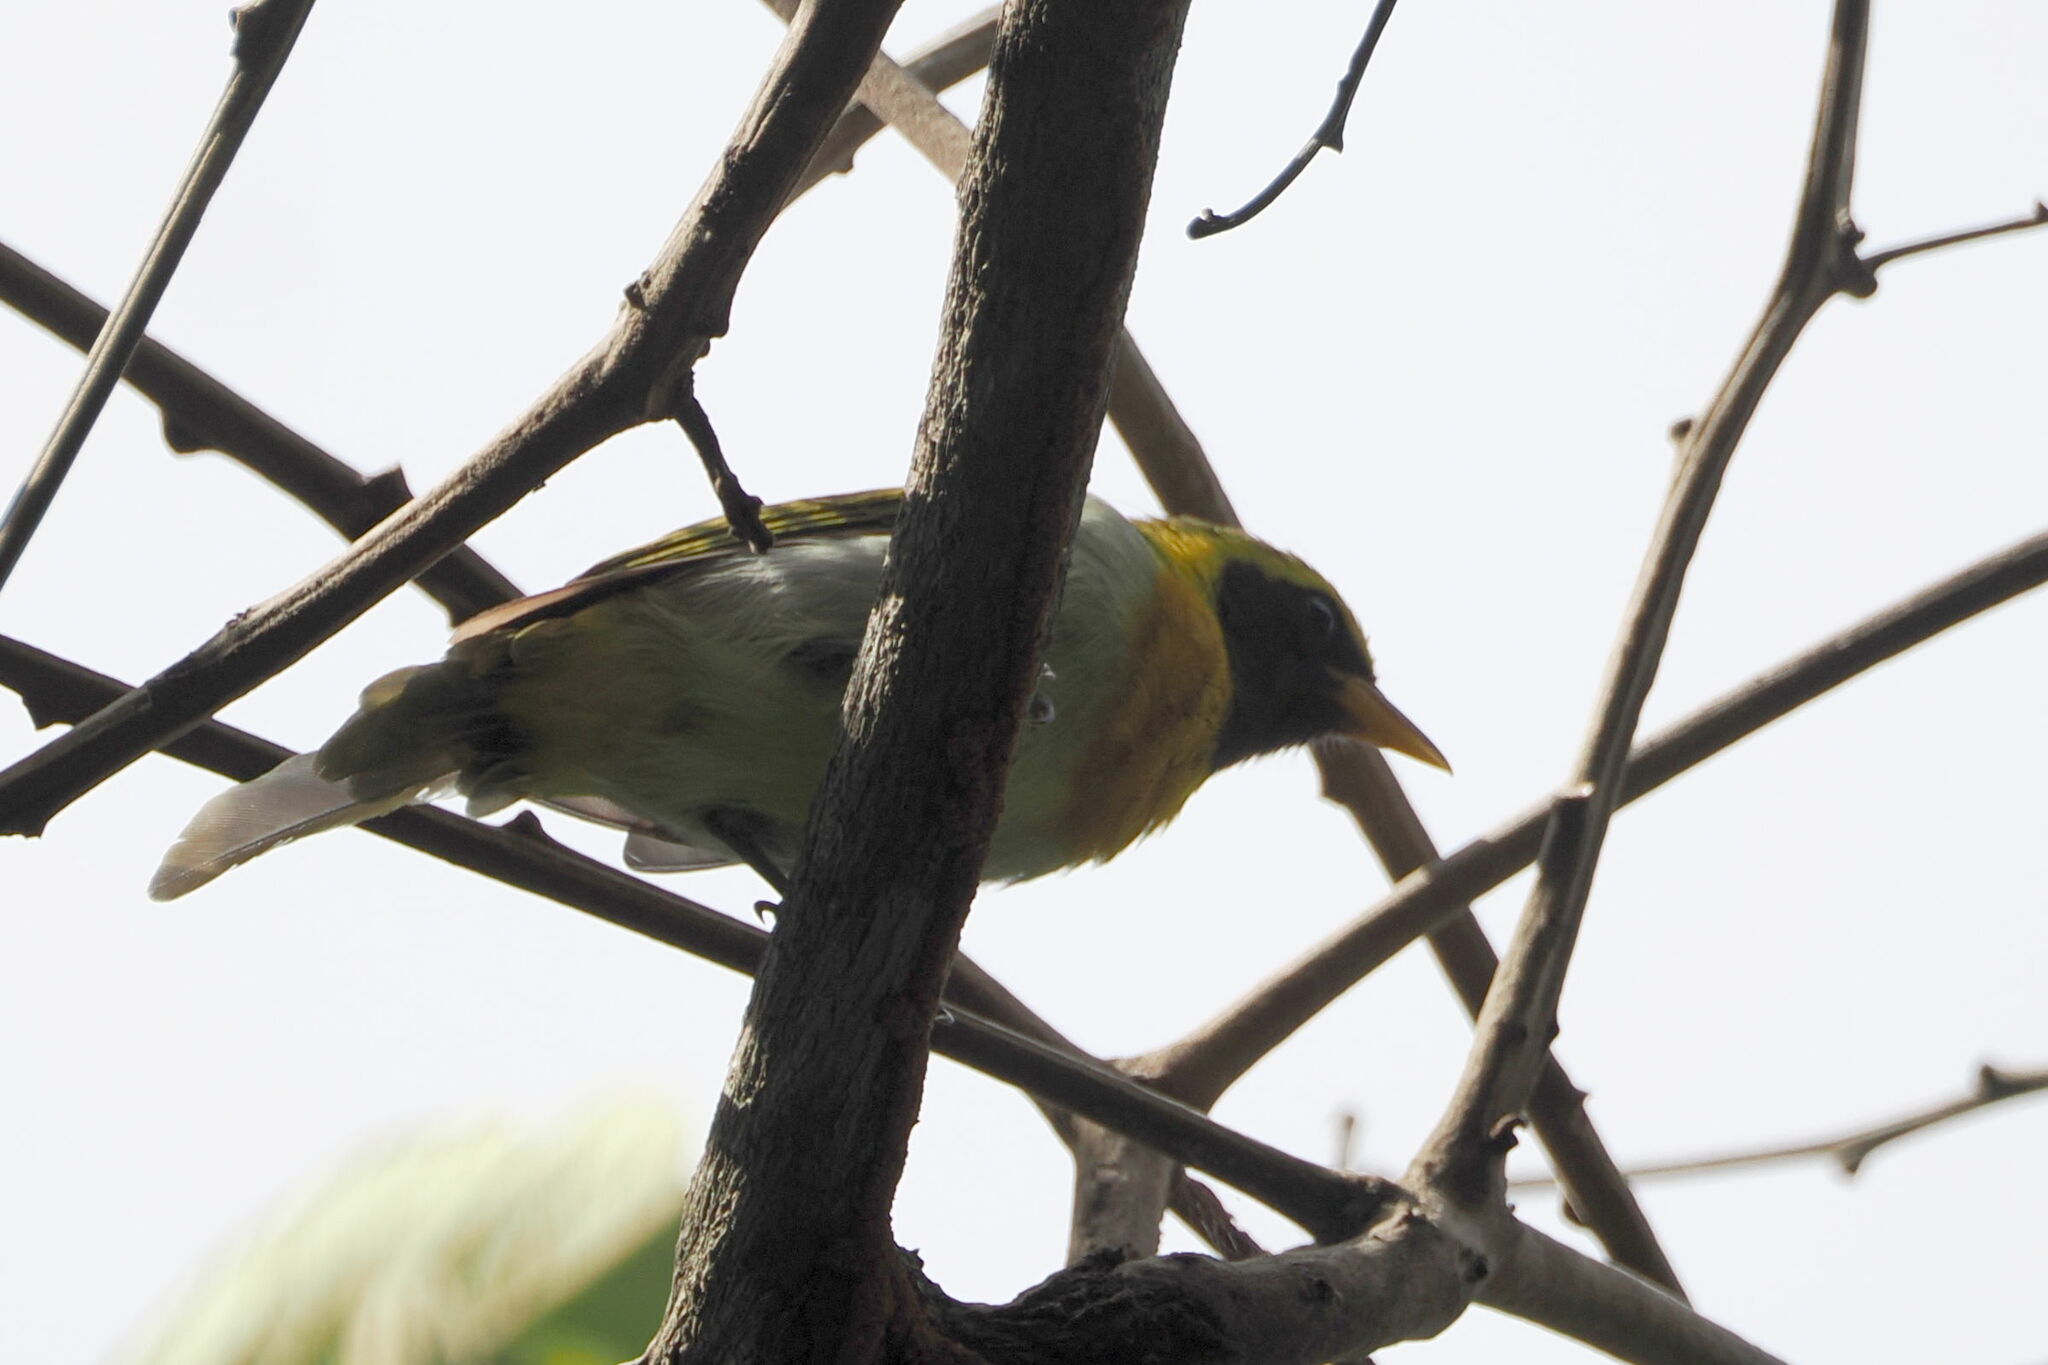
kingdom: Animalia
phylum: Chordata
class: Aves
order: Passeriformes
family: Thraupidae
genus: Hemithraupis
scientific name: Hemithraupis guira
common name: Guira tanager
